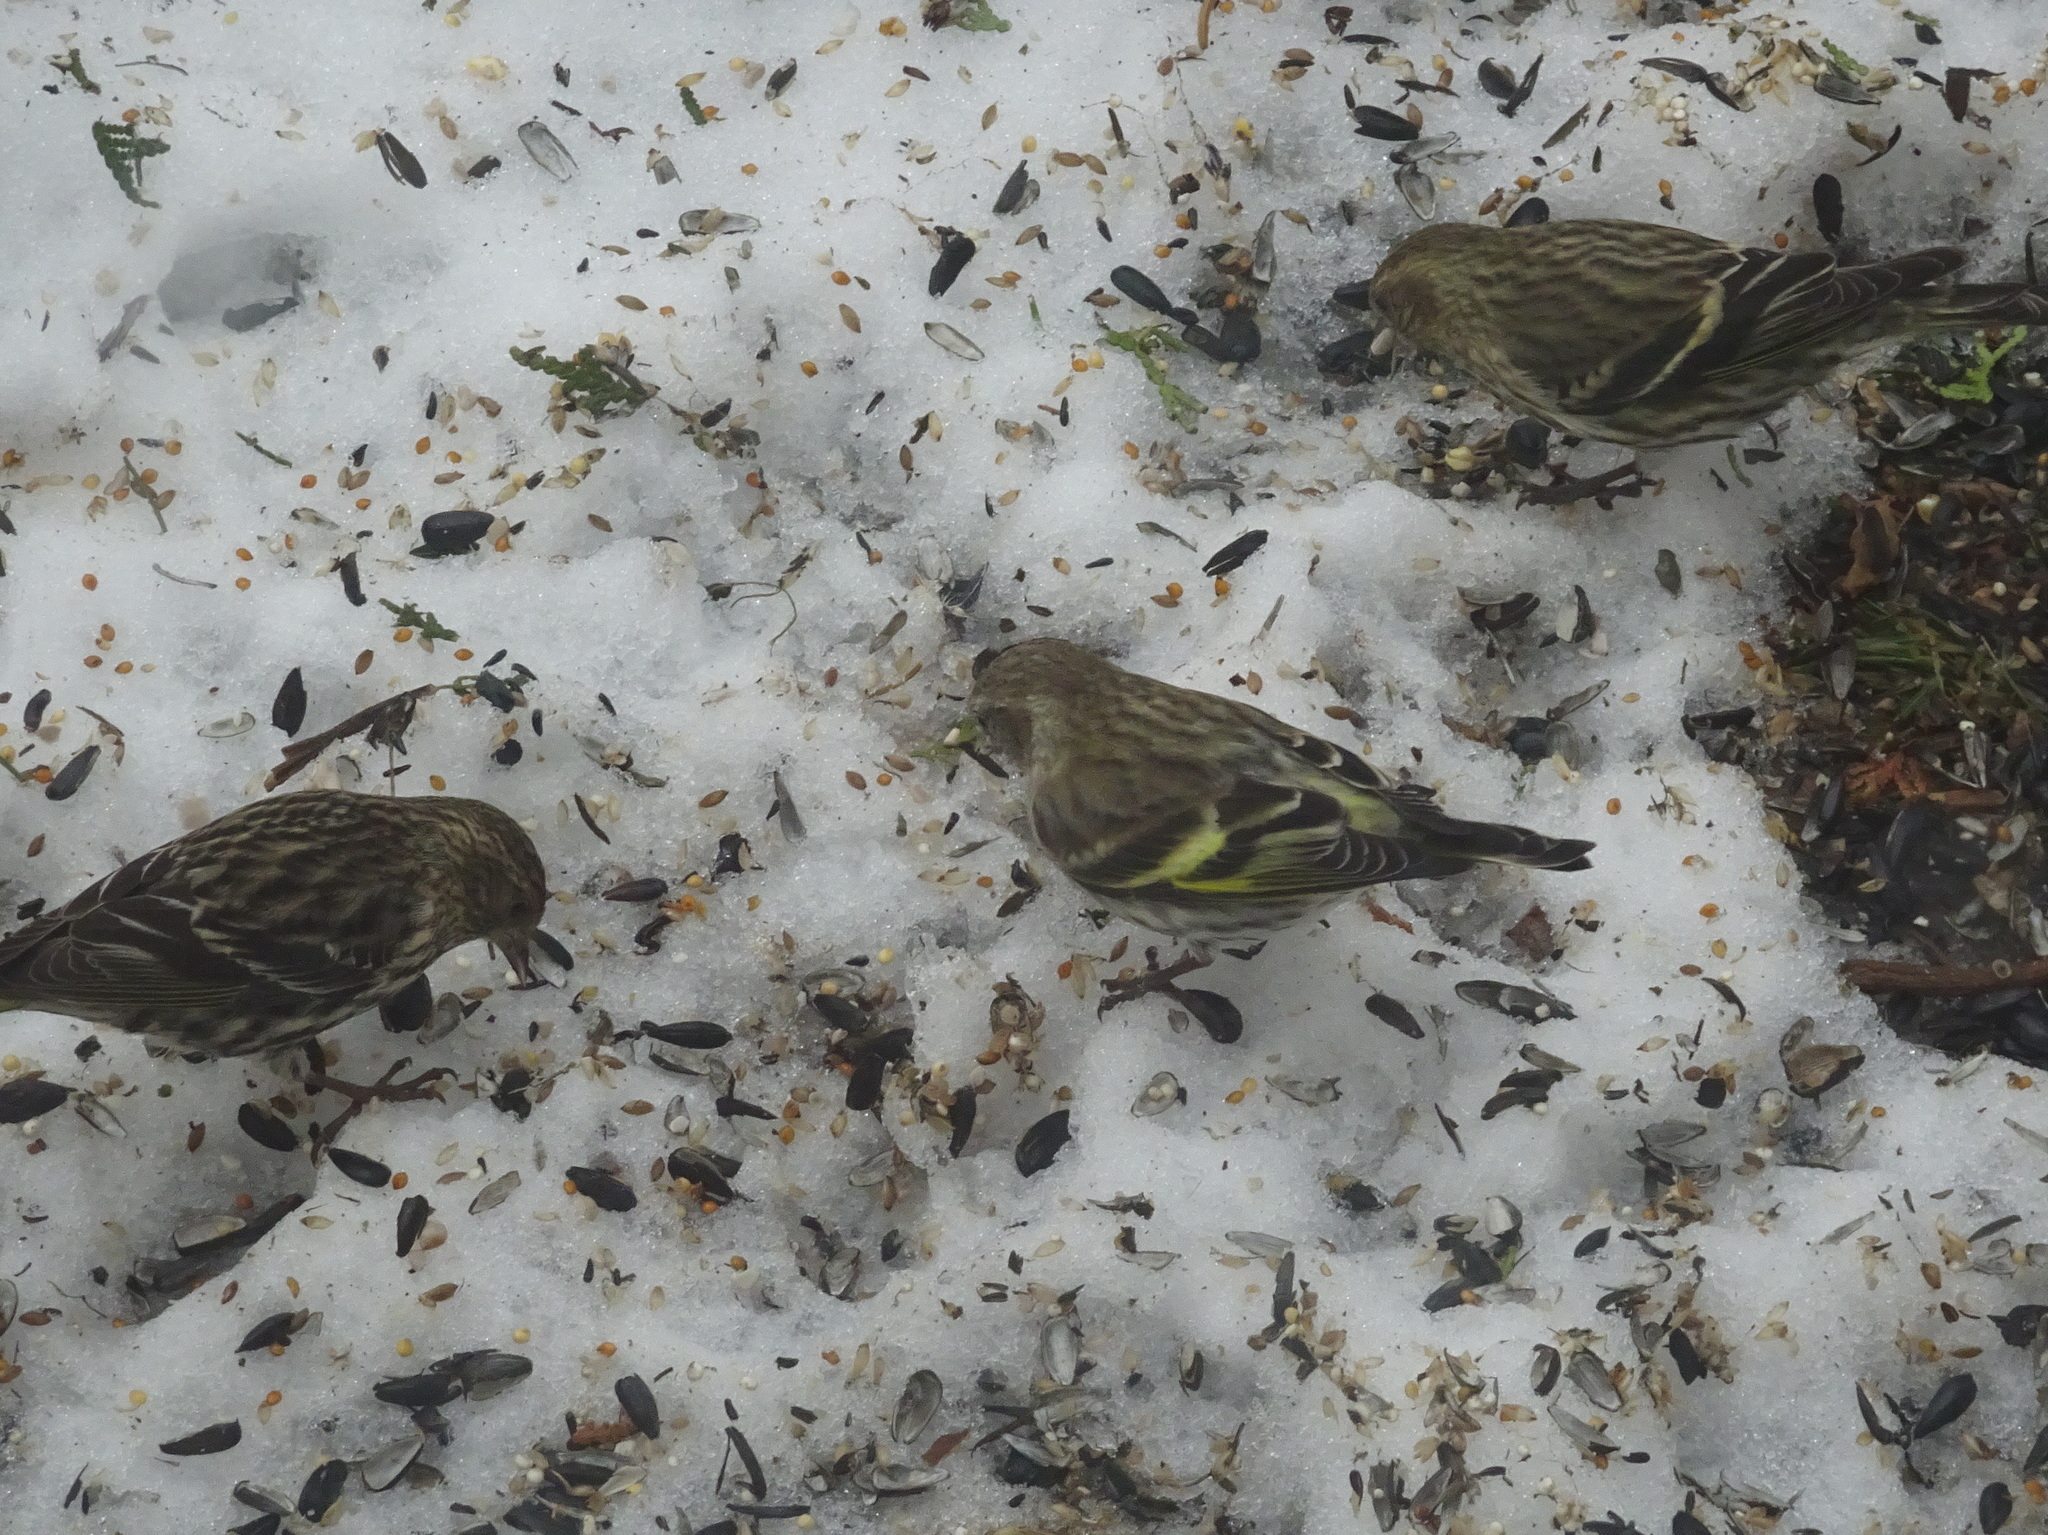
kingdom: Animalia
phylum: Chordata
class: Aves
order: Passeriformes
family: Fringillidae
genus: Spinus
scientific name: Spinus pinus
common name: Pine siskin
